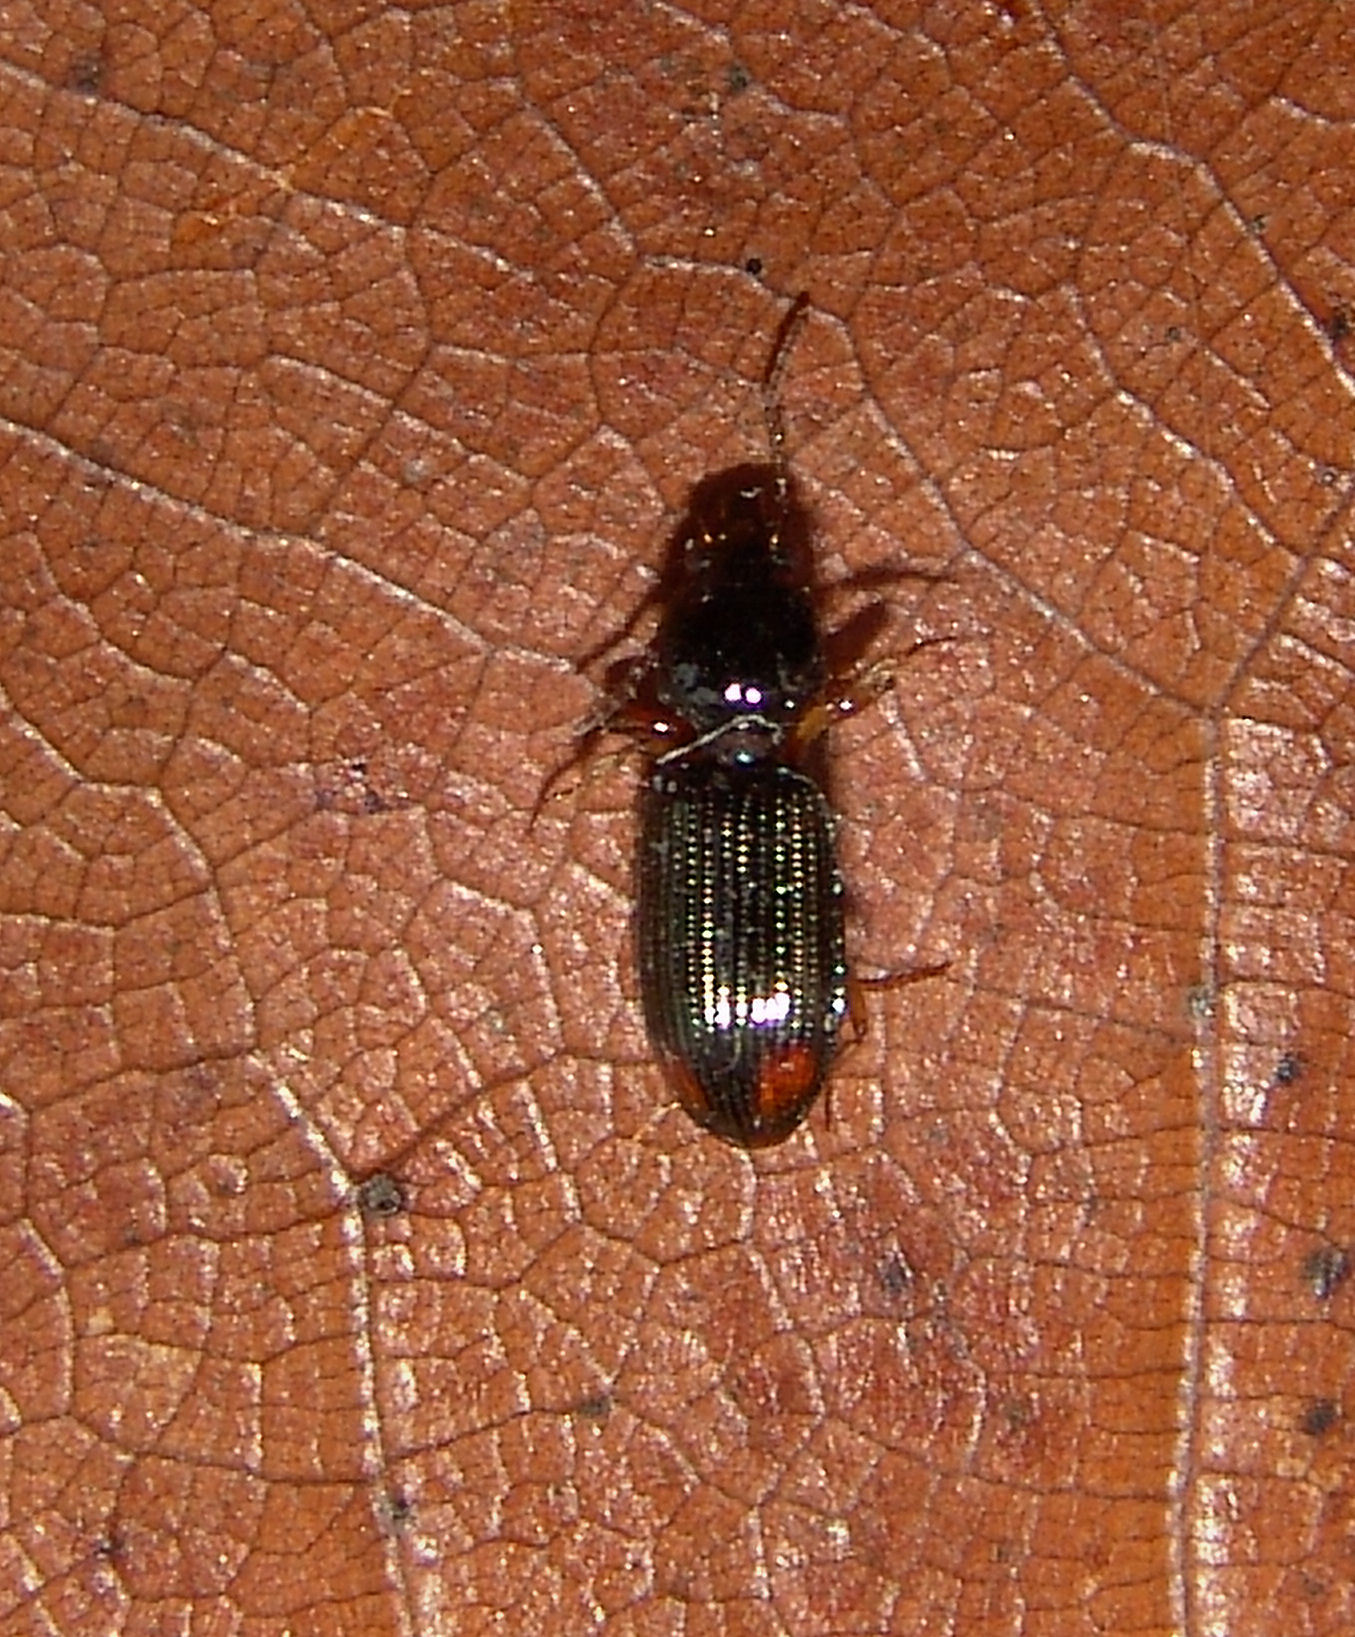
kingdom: Animalia
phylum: Arthropoda
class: Insecta
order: Coleoptera
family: Carabidae
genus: Aspidoglossa
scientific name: Aspidoglossa subangulata
